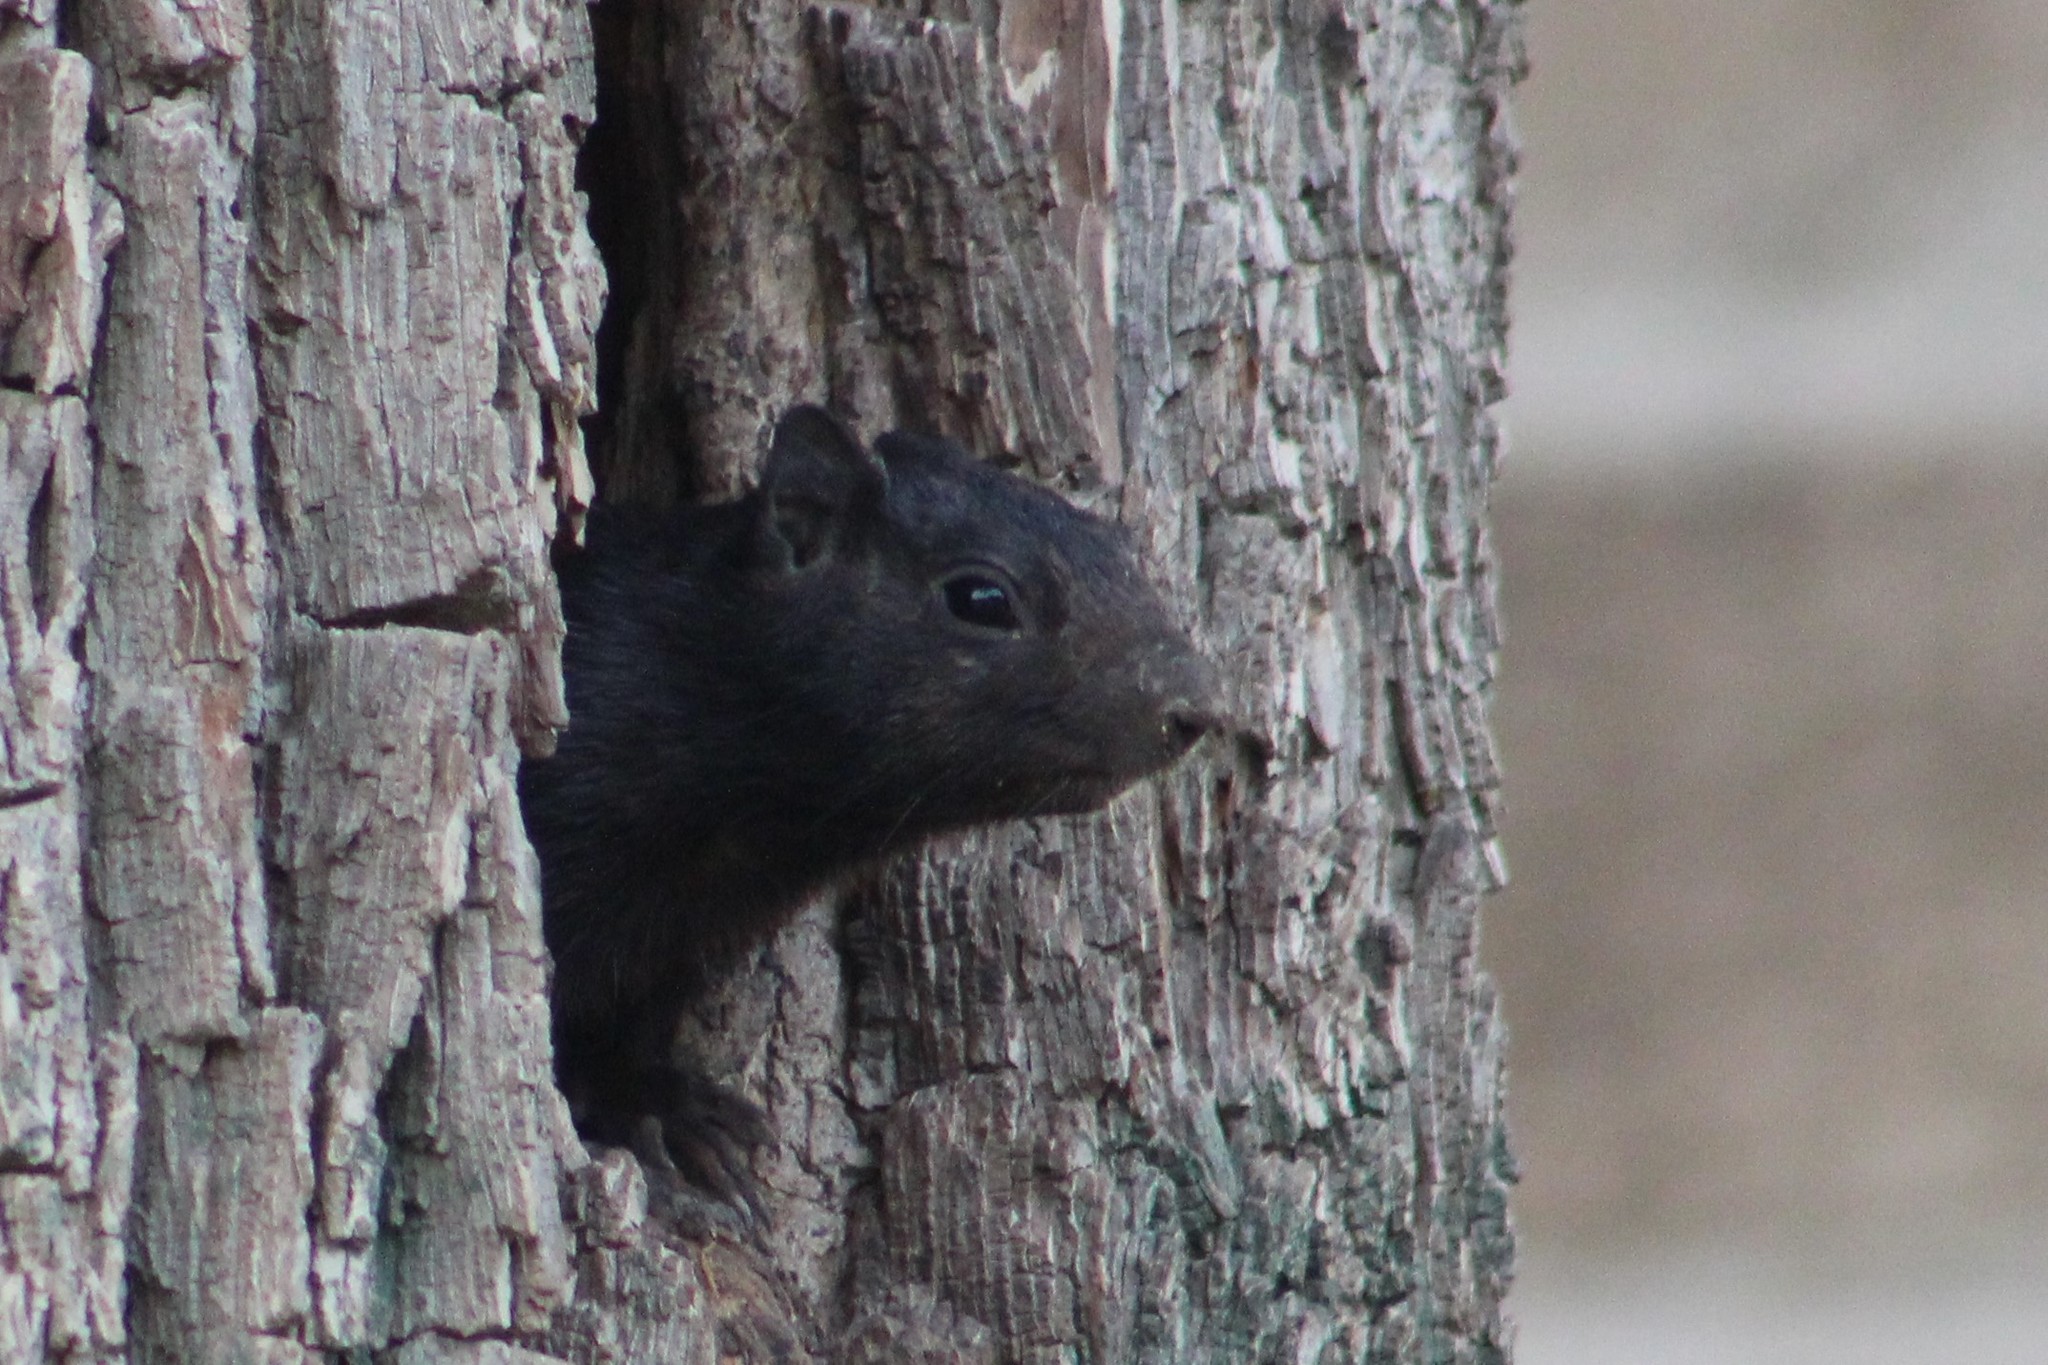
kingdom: Animalia
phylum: Chordata
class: Mammalia
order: Rodentia
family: Sciuridae
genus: Otospermophilus
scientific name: Otospermophilus variegatus
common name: Rock squirrel
